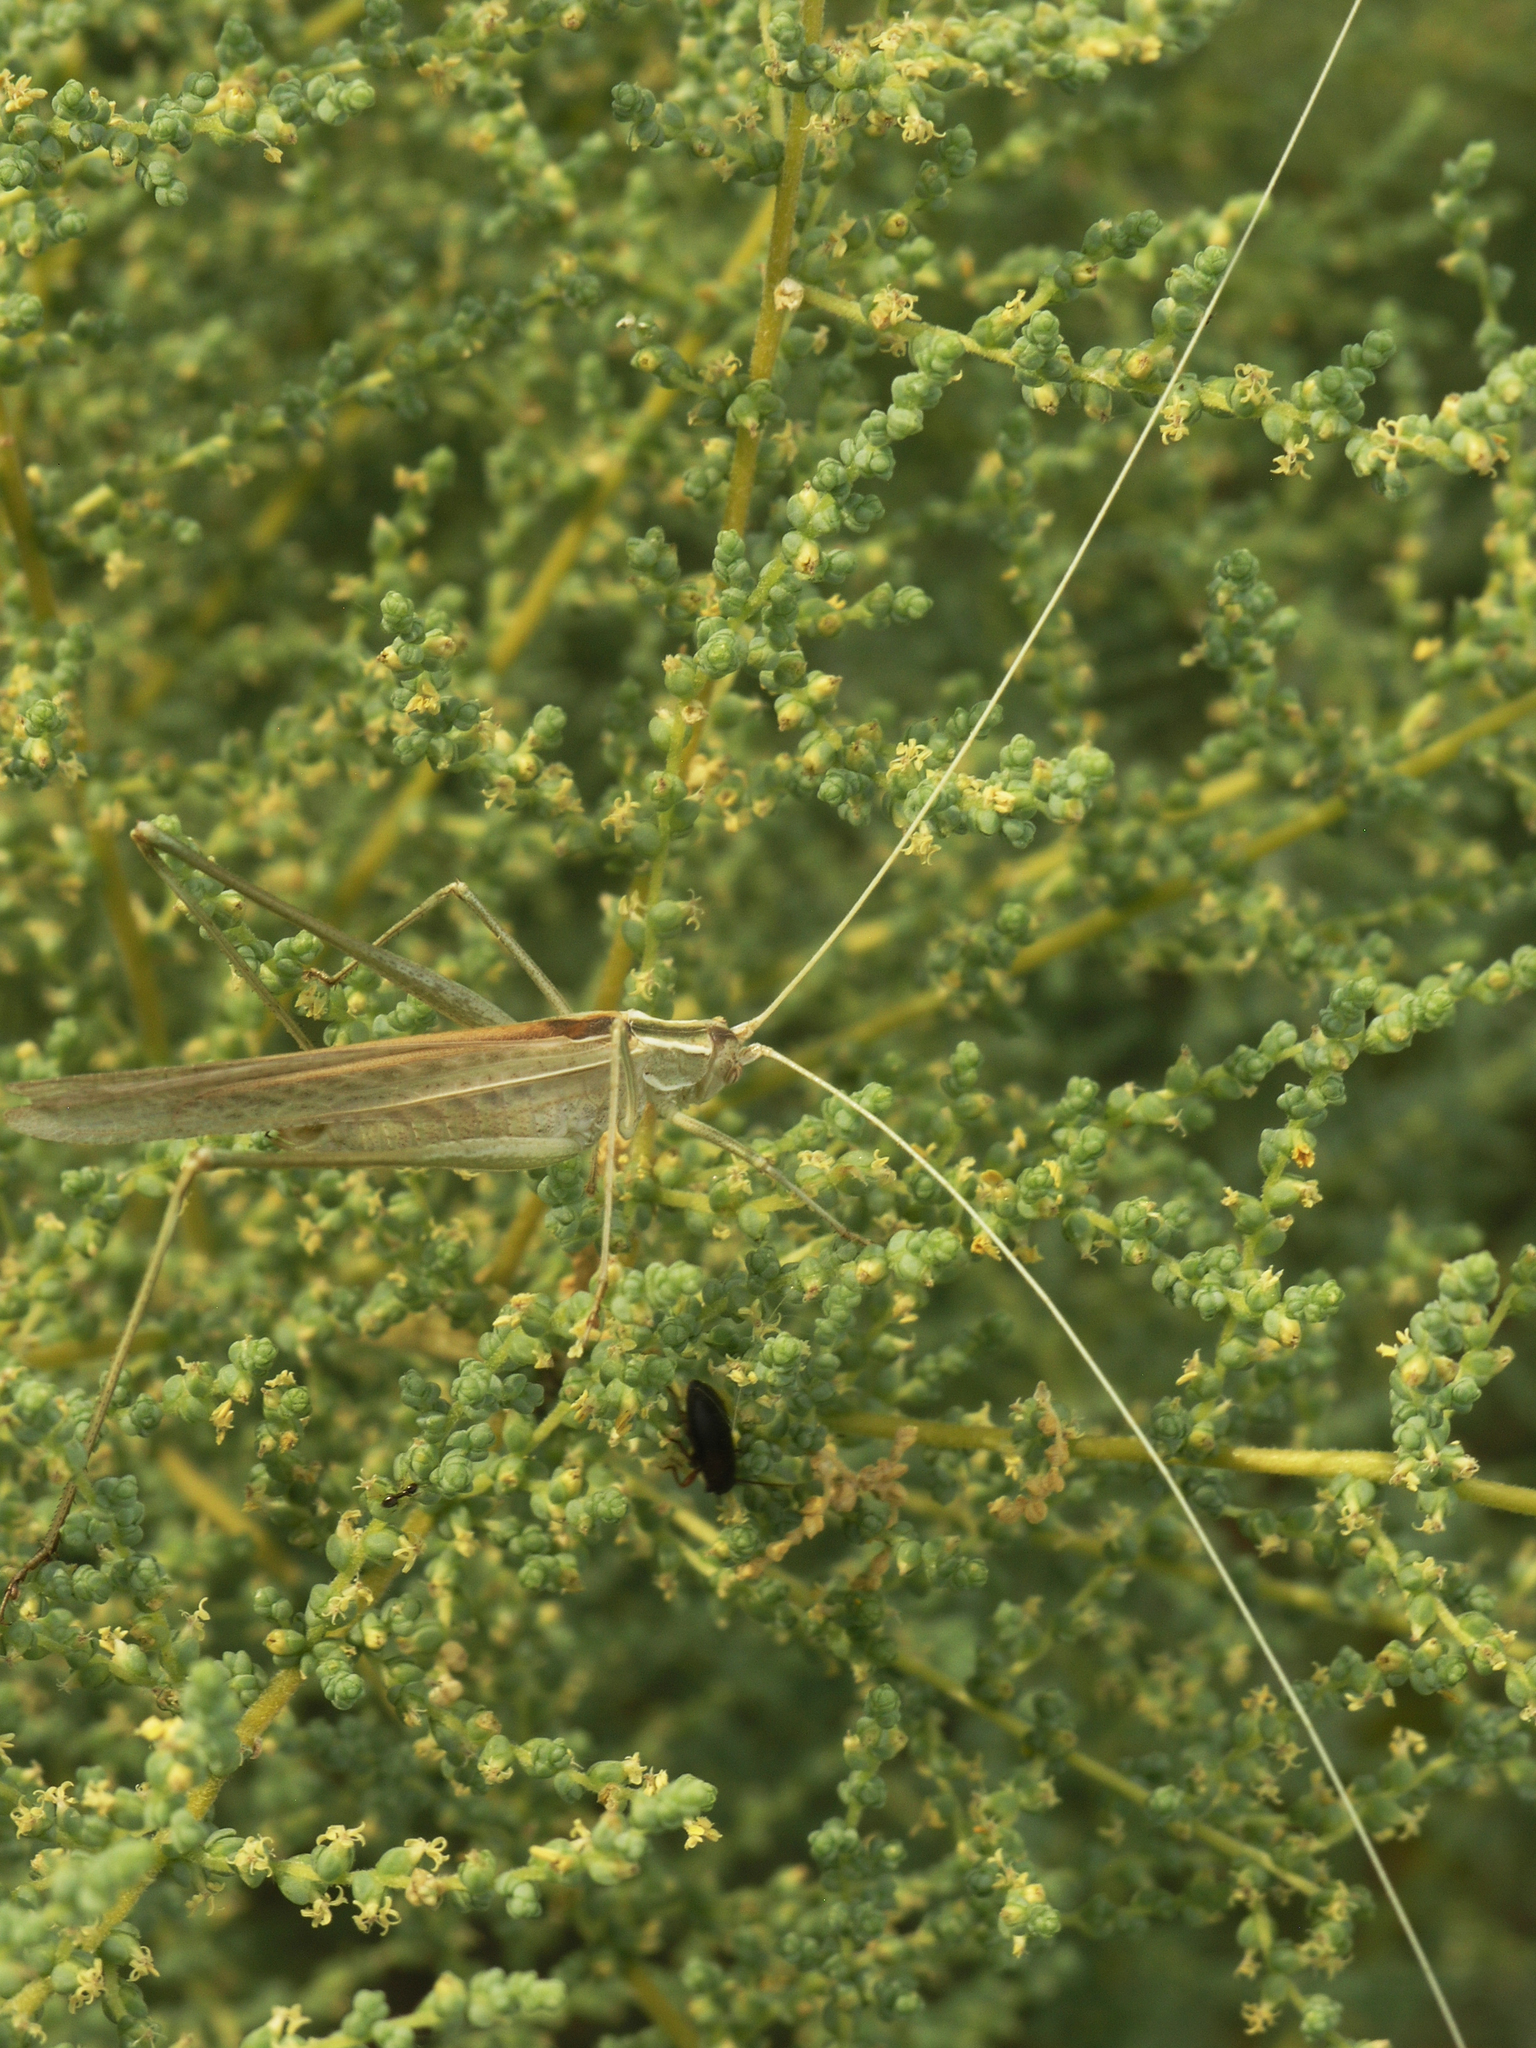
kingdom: Animalia
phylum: Arthropoda
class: Insecta
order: Orthoptera
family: Tettigoniidae
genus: Tylopsis
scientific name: Tylopsis lilifolia
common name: Lily bush-cricket
